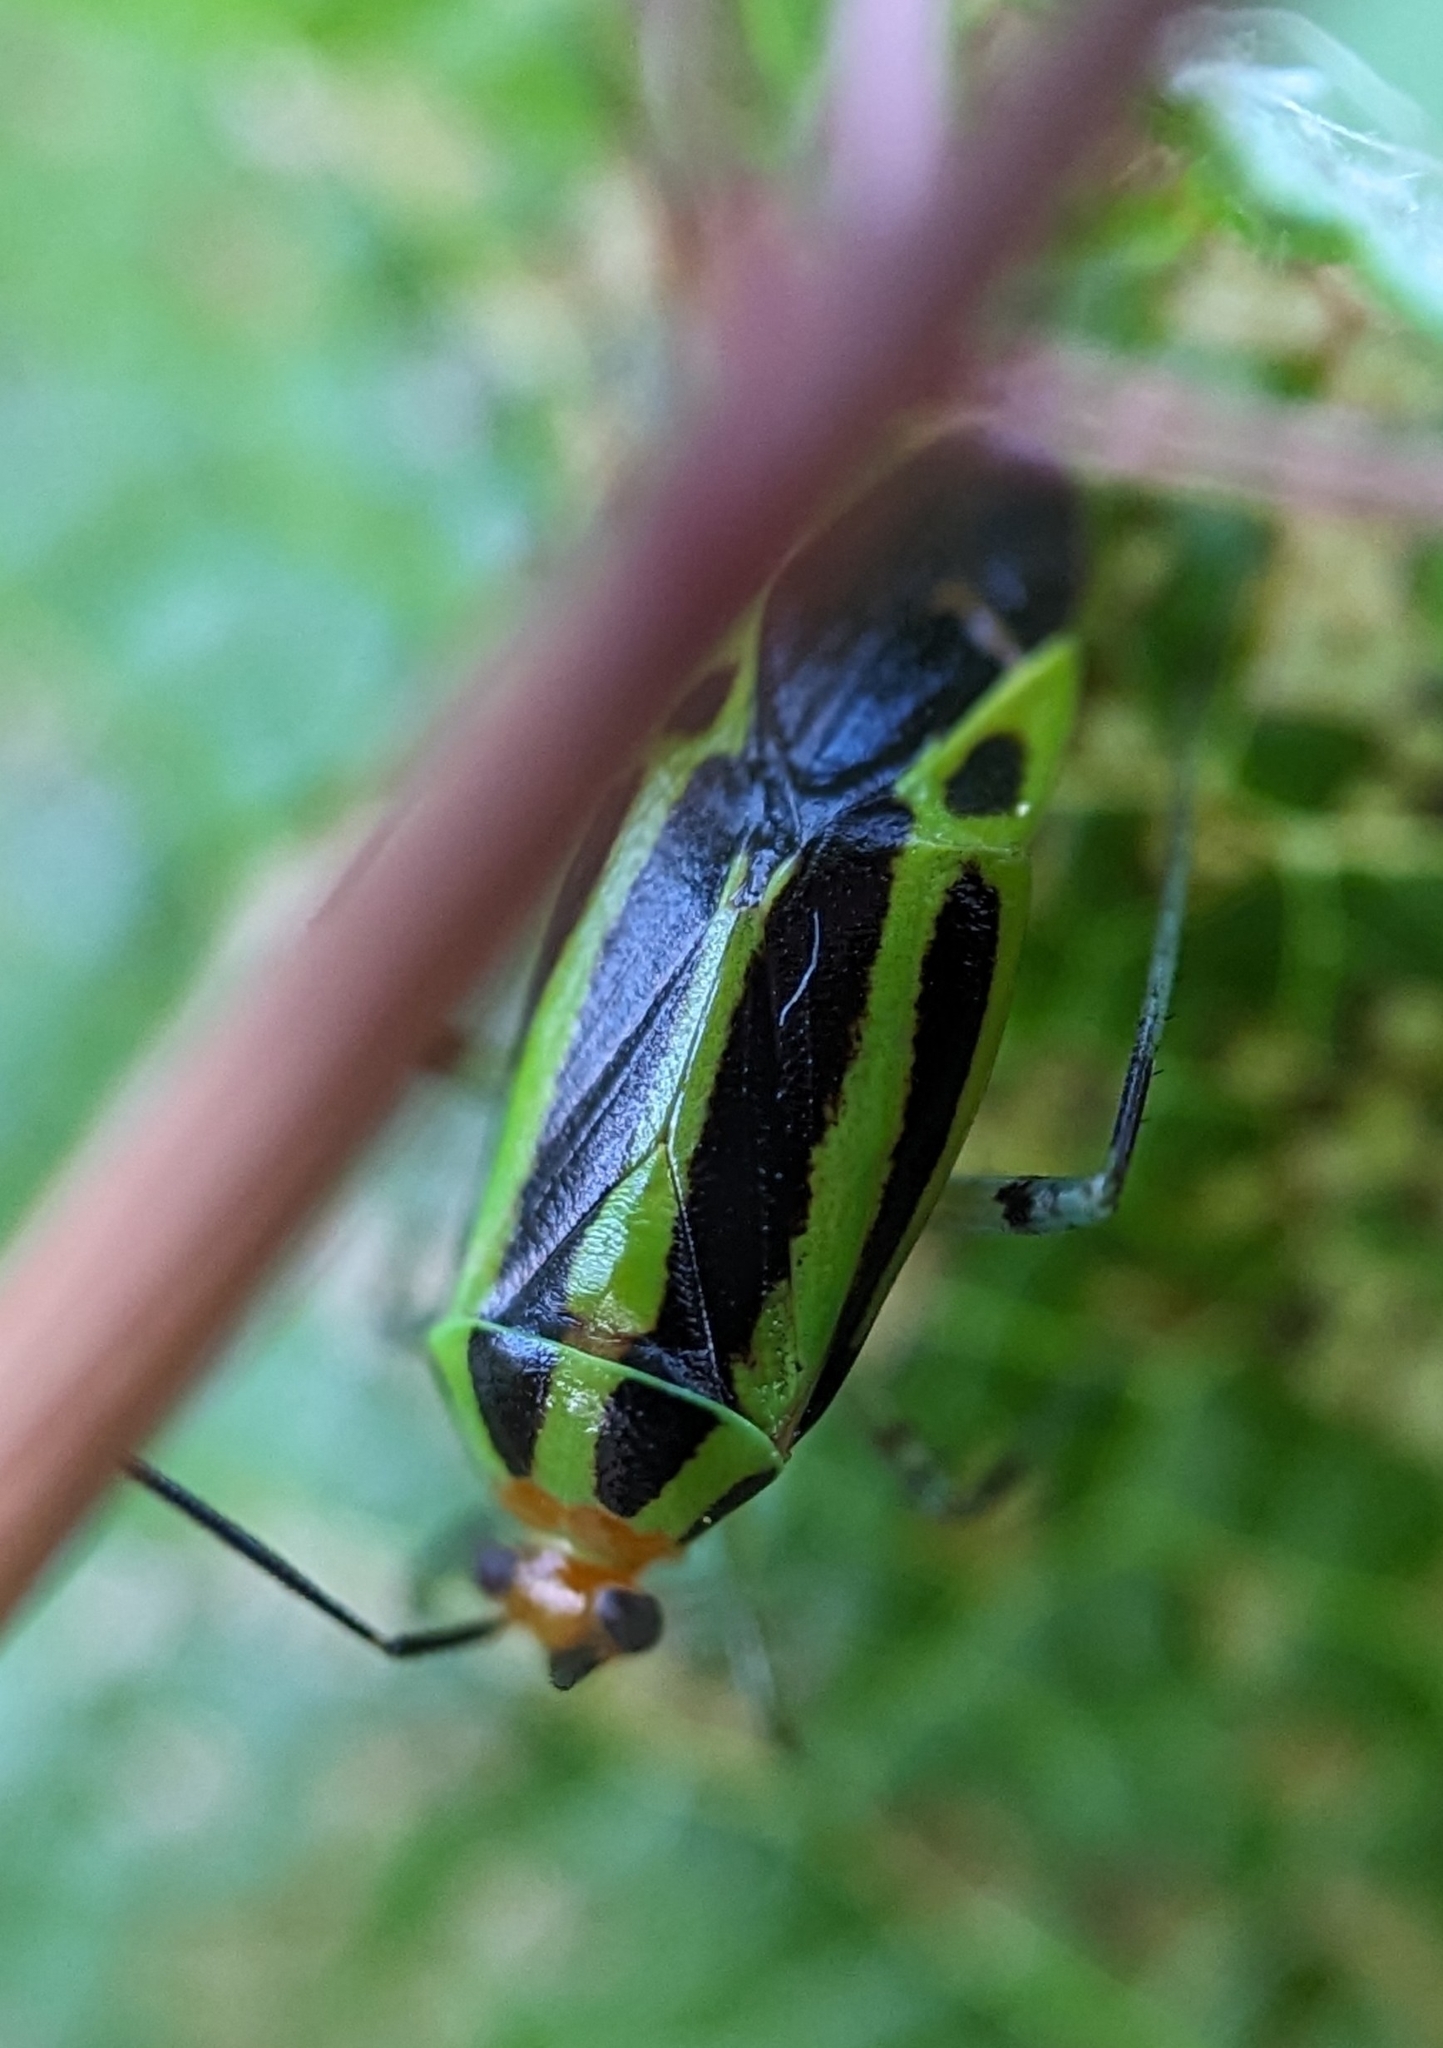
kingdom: Animalia
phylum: Arthropoda
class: Insecta
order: Hemiptera
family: Miridae
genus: Poecilocapsus
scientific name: Poecilocapsus lineatus
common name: Four-lined plant bug
